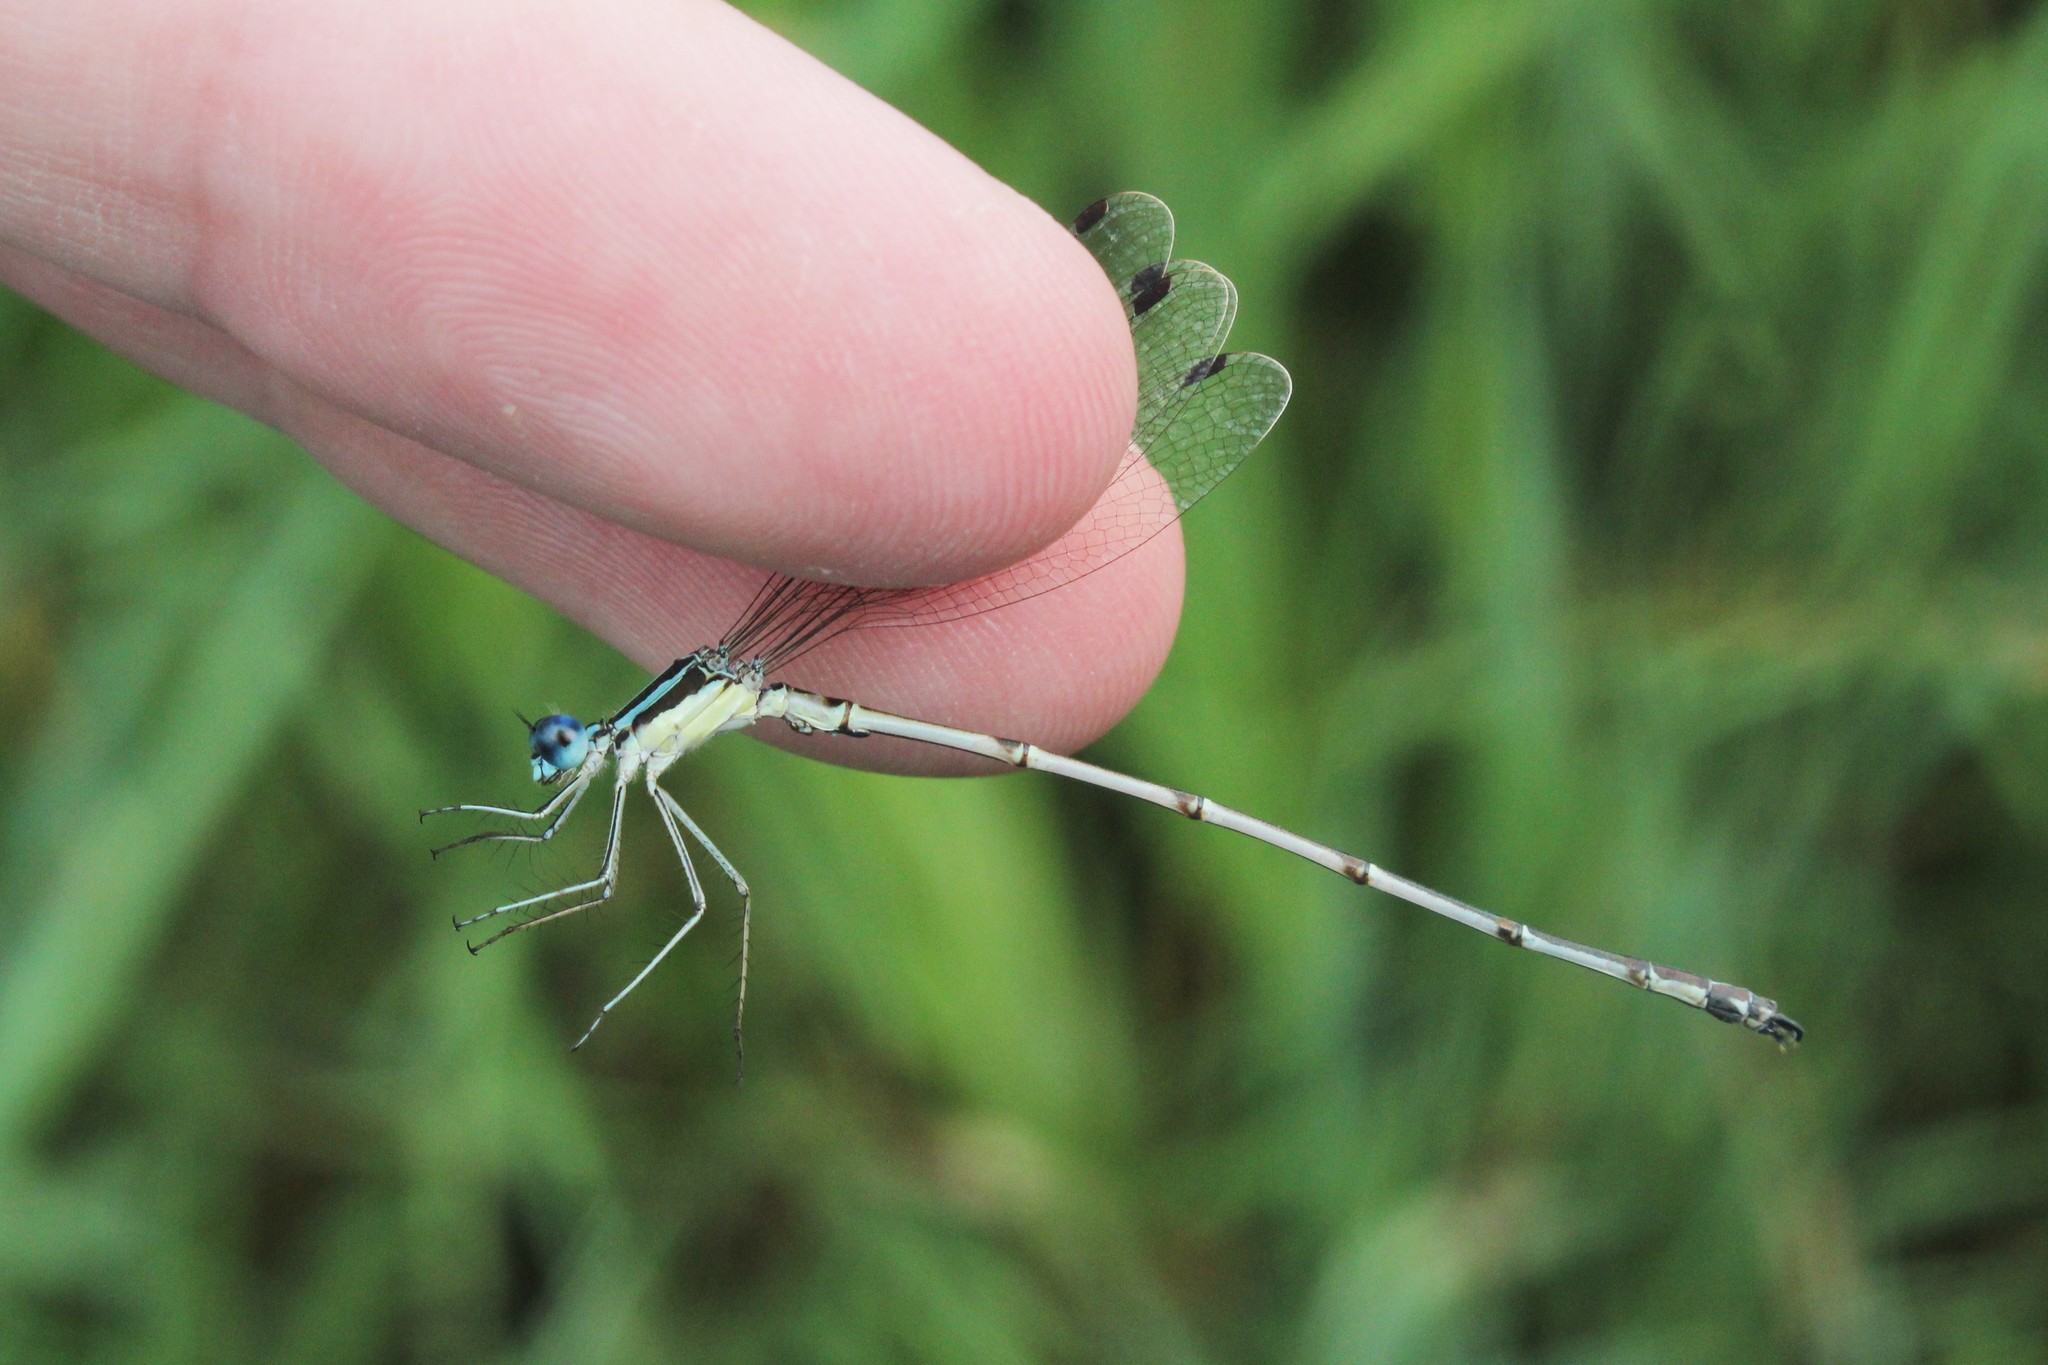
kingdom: Animalia
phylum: Arthropoda
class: Insecta
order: Odonata
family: Lestidae
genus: Lestes
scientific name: Lestes rectangularis
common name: Slender spreadwing
